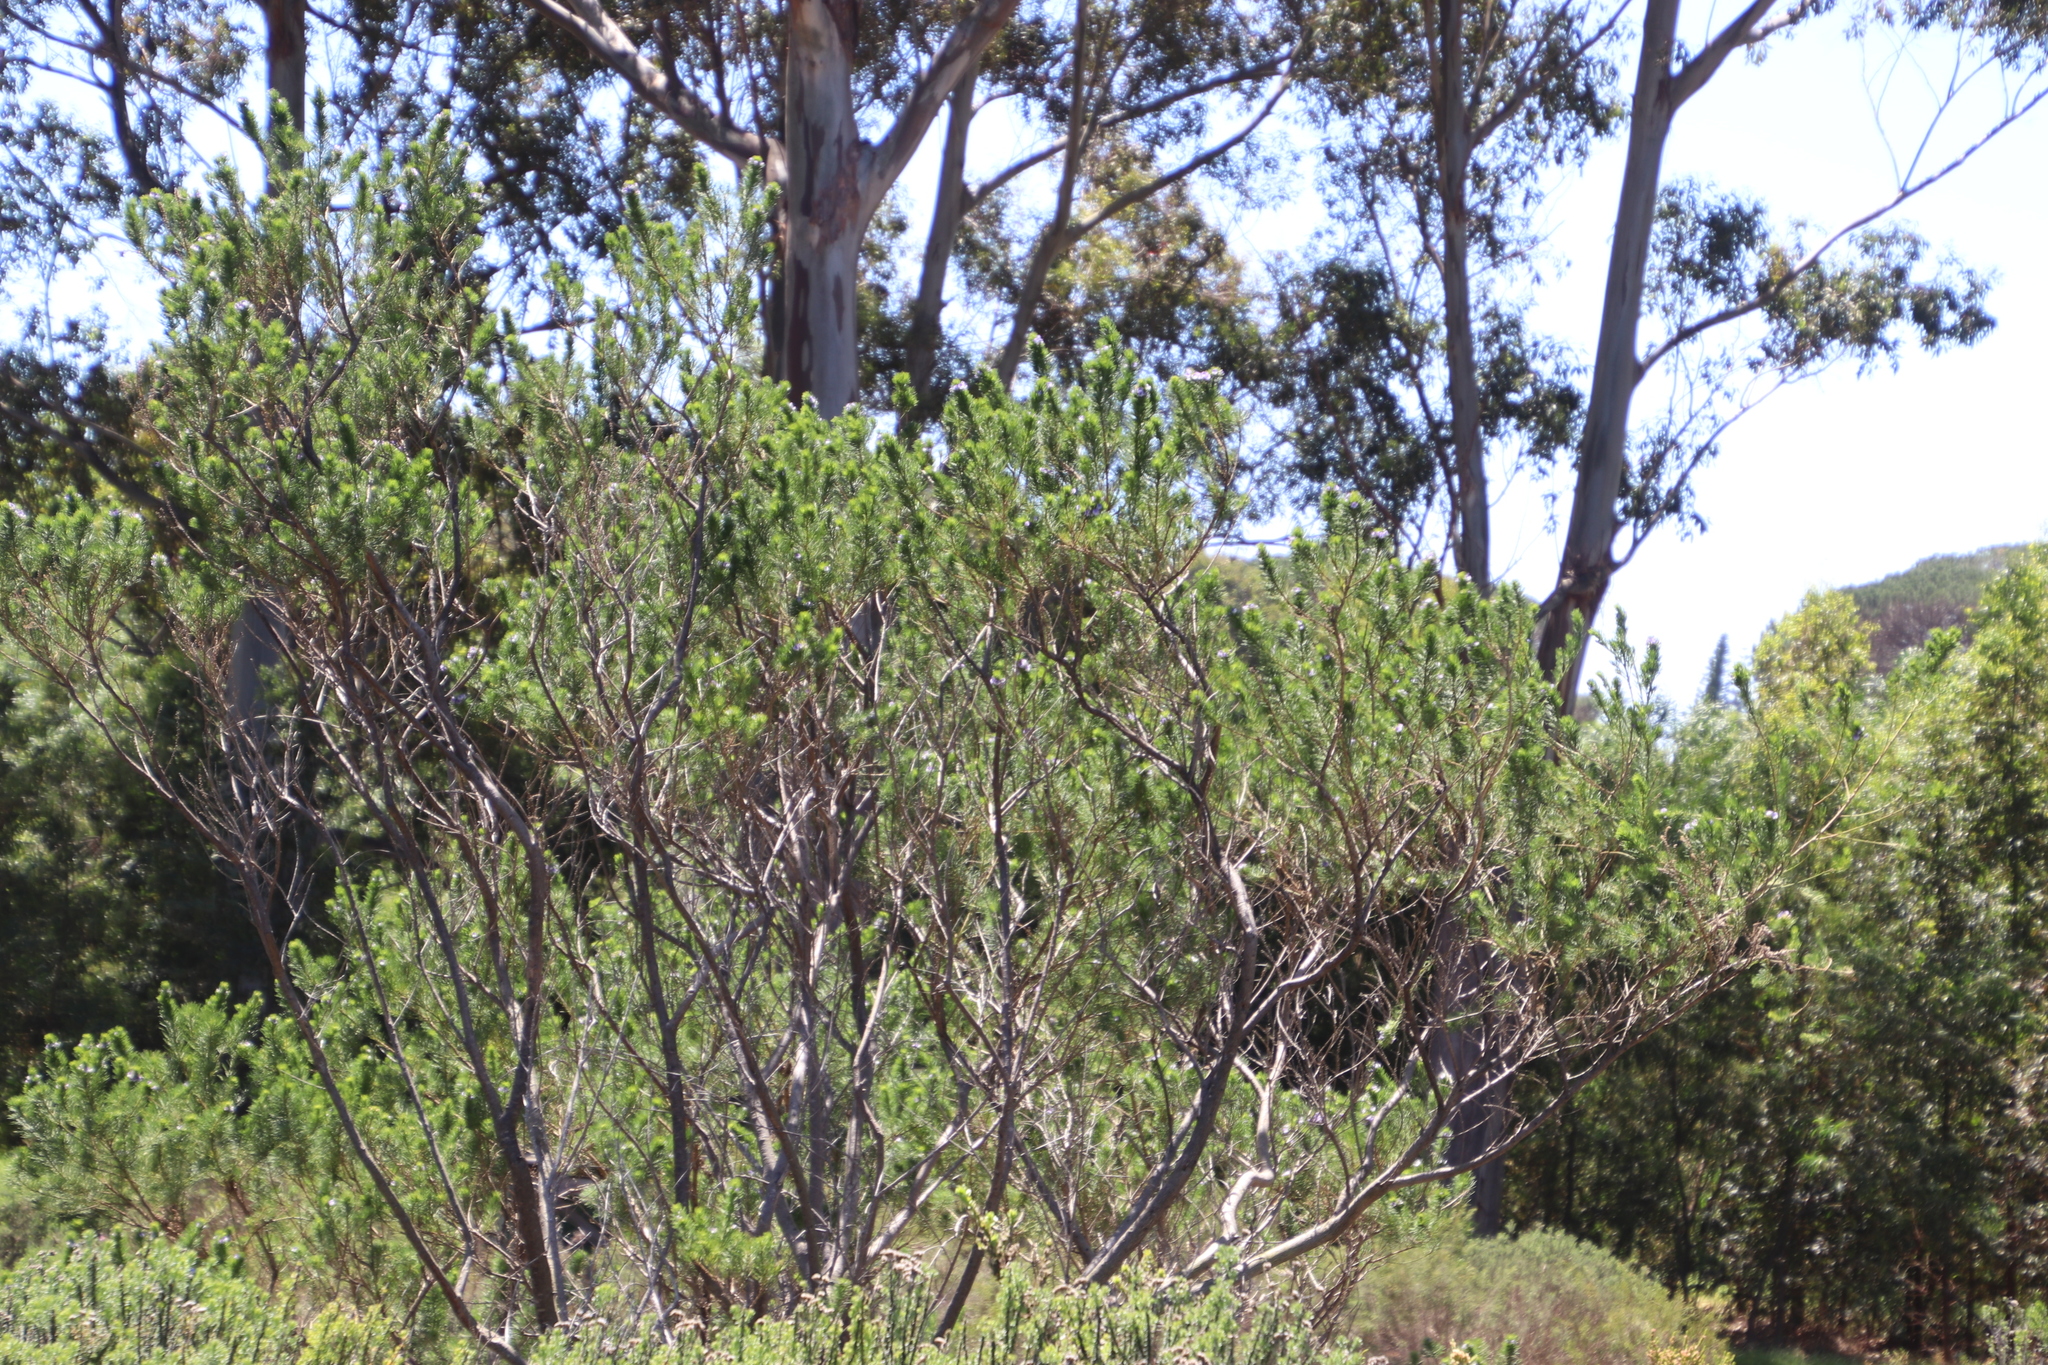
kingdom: Plantae
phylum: Tracheophyta
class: Magnoliopsida
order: Fabales
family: Fabaceae
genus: Psoralea
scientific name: Psoralea pinnata
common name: African scurfpea
